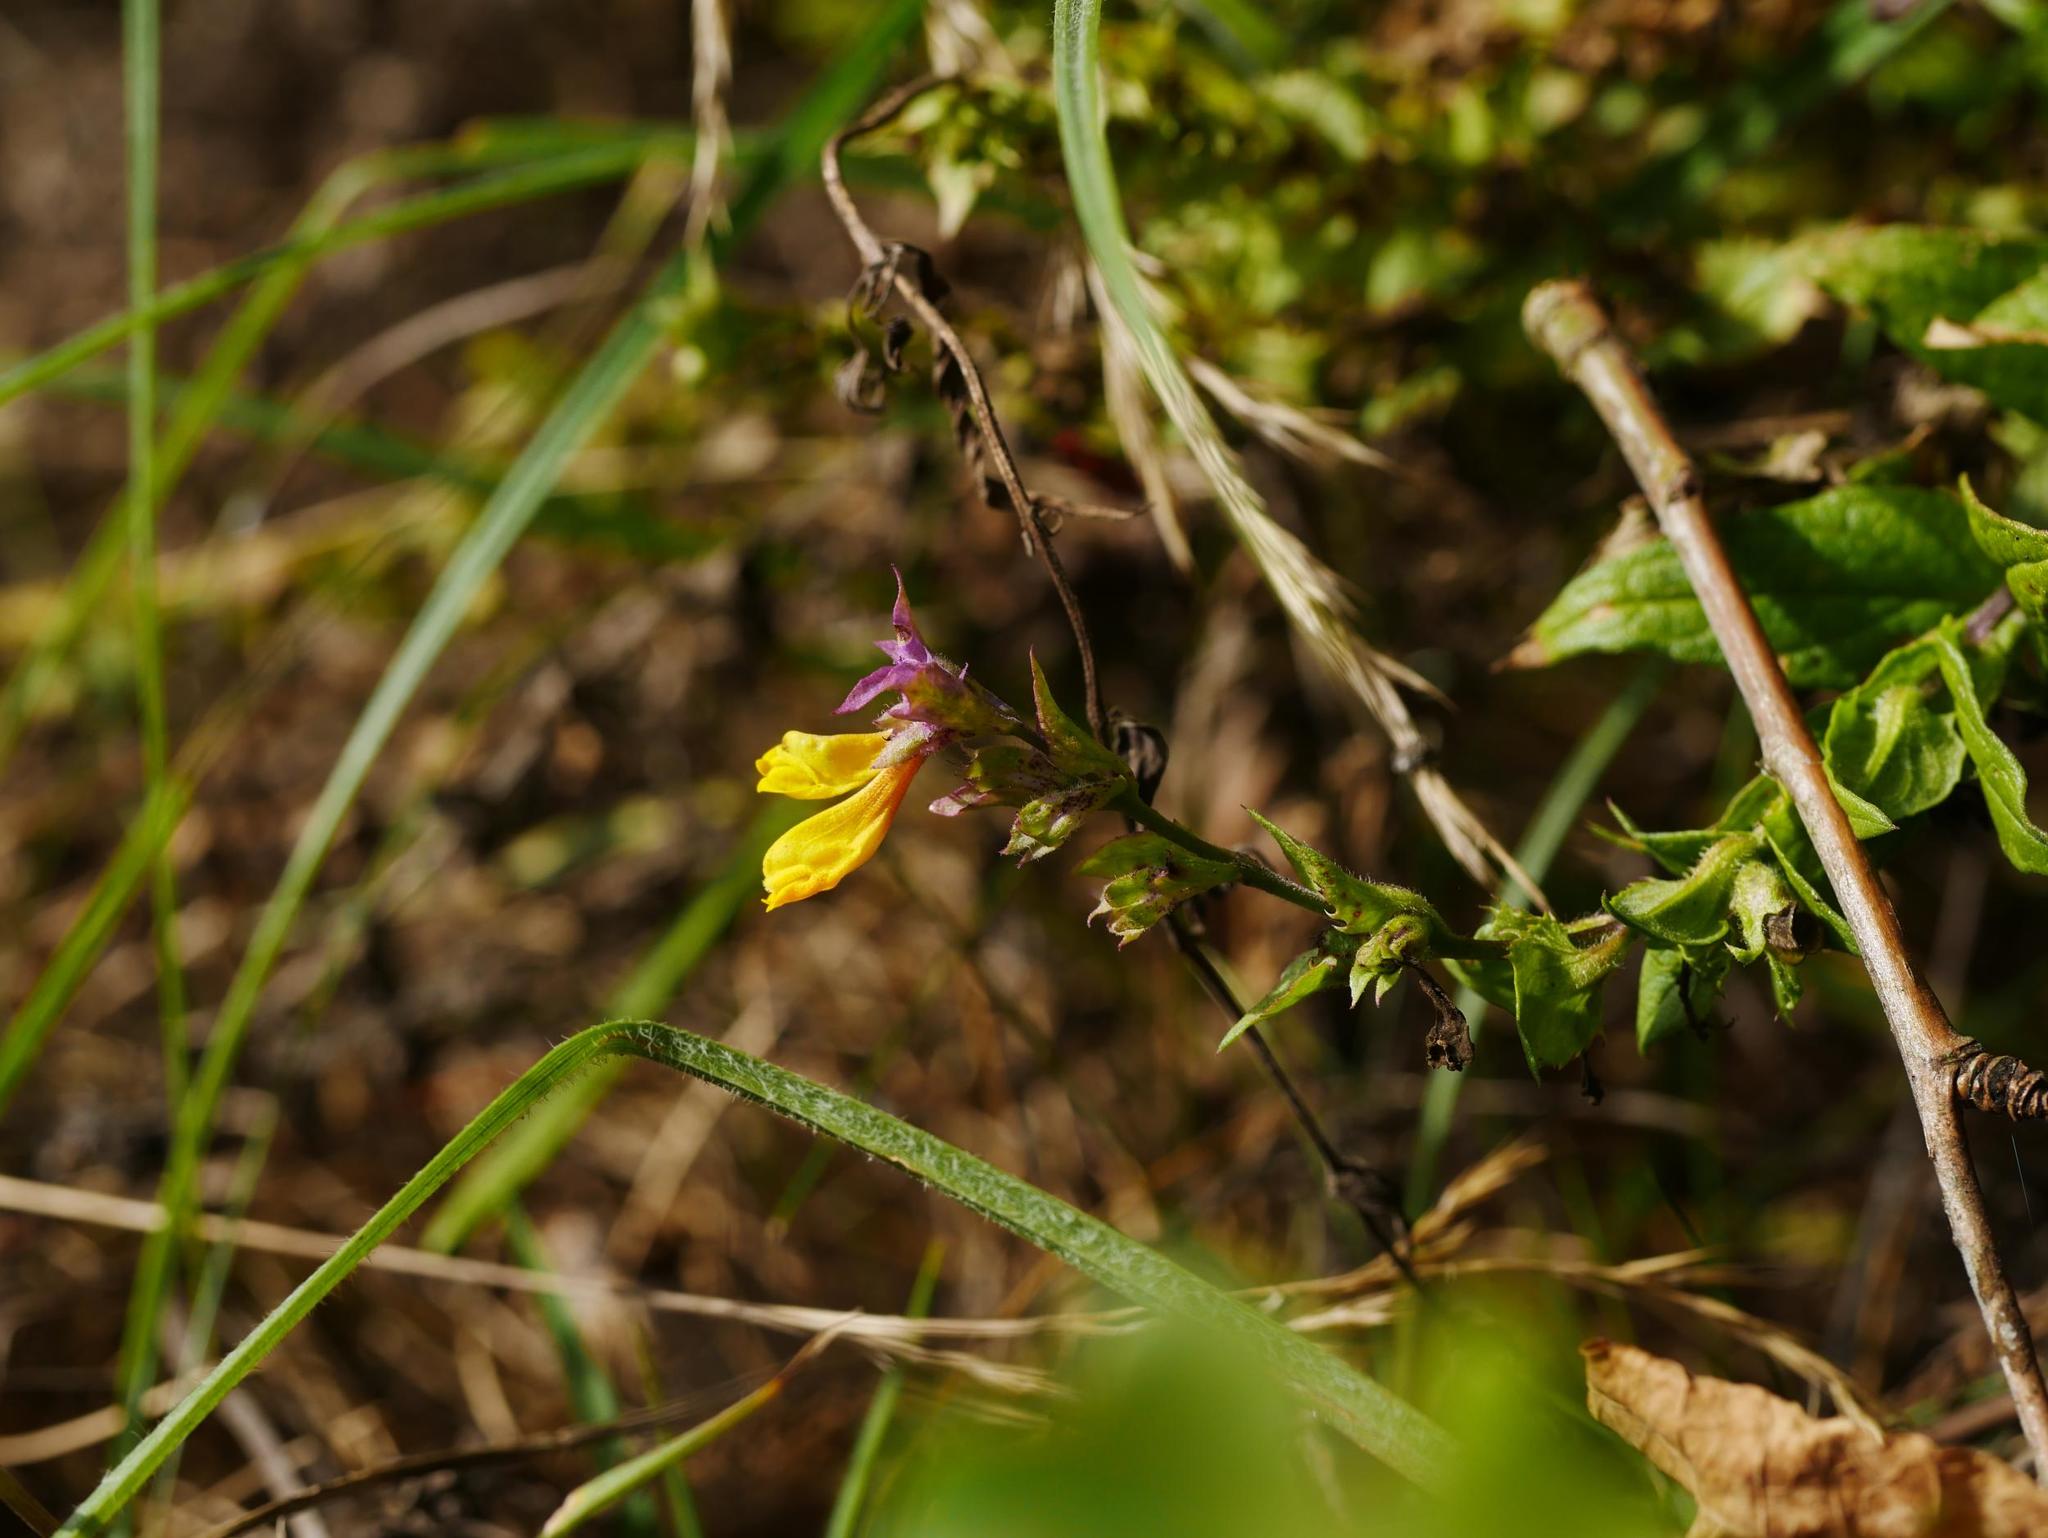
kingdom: Plantae
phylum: Tracheophyta
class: Magnoliopsida
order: Lamiales
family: Orobanchaceae
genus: Melampyrum
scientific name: Melampyrum nemorosum
